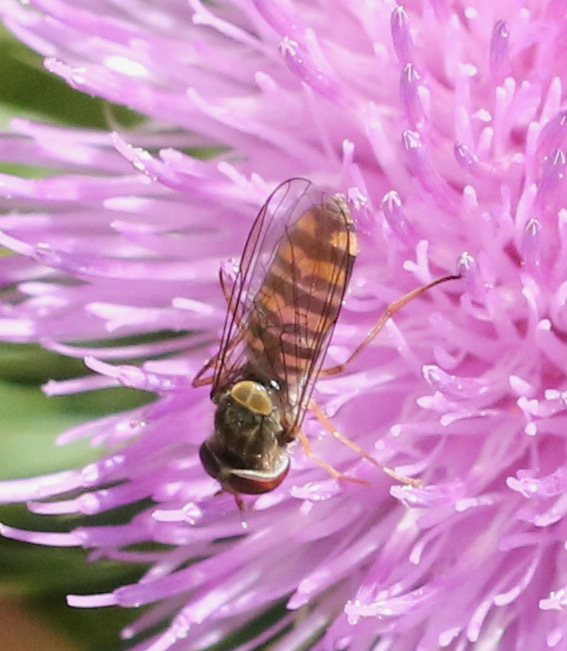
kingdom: Animalia
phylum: Arthropoda
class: Insecta
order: Diptera
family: Syrphidae
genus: Episyrphus
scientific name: Episyrphus balteatus
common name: Marmalade hoverfly
